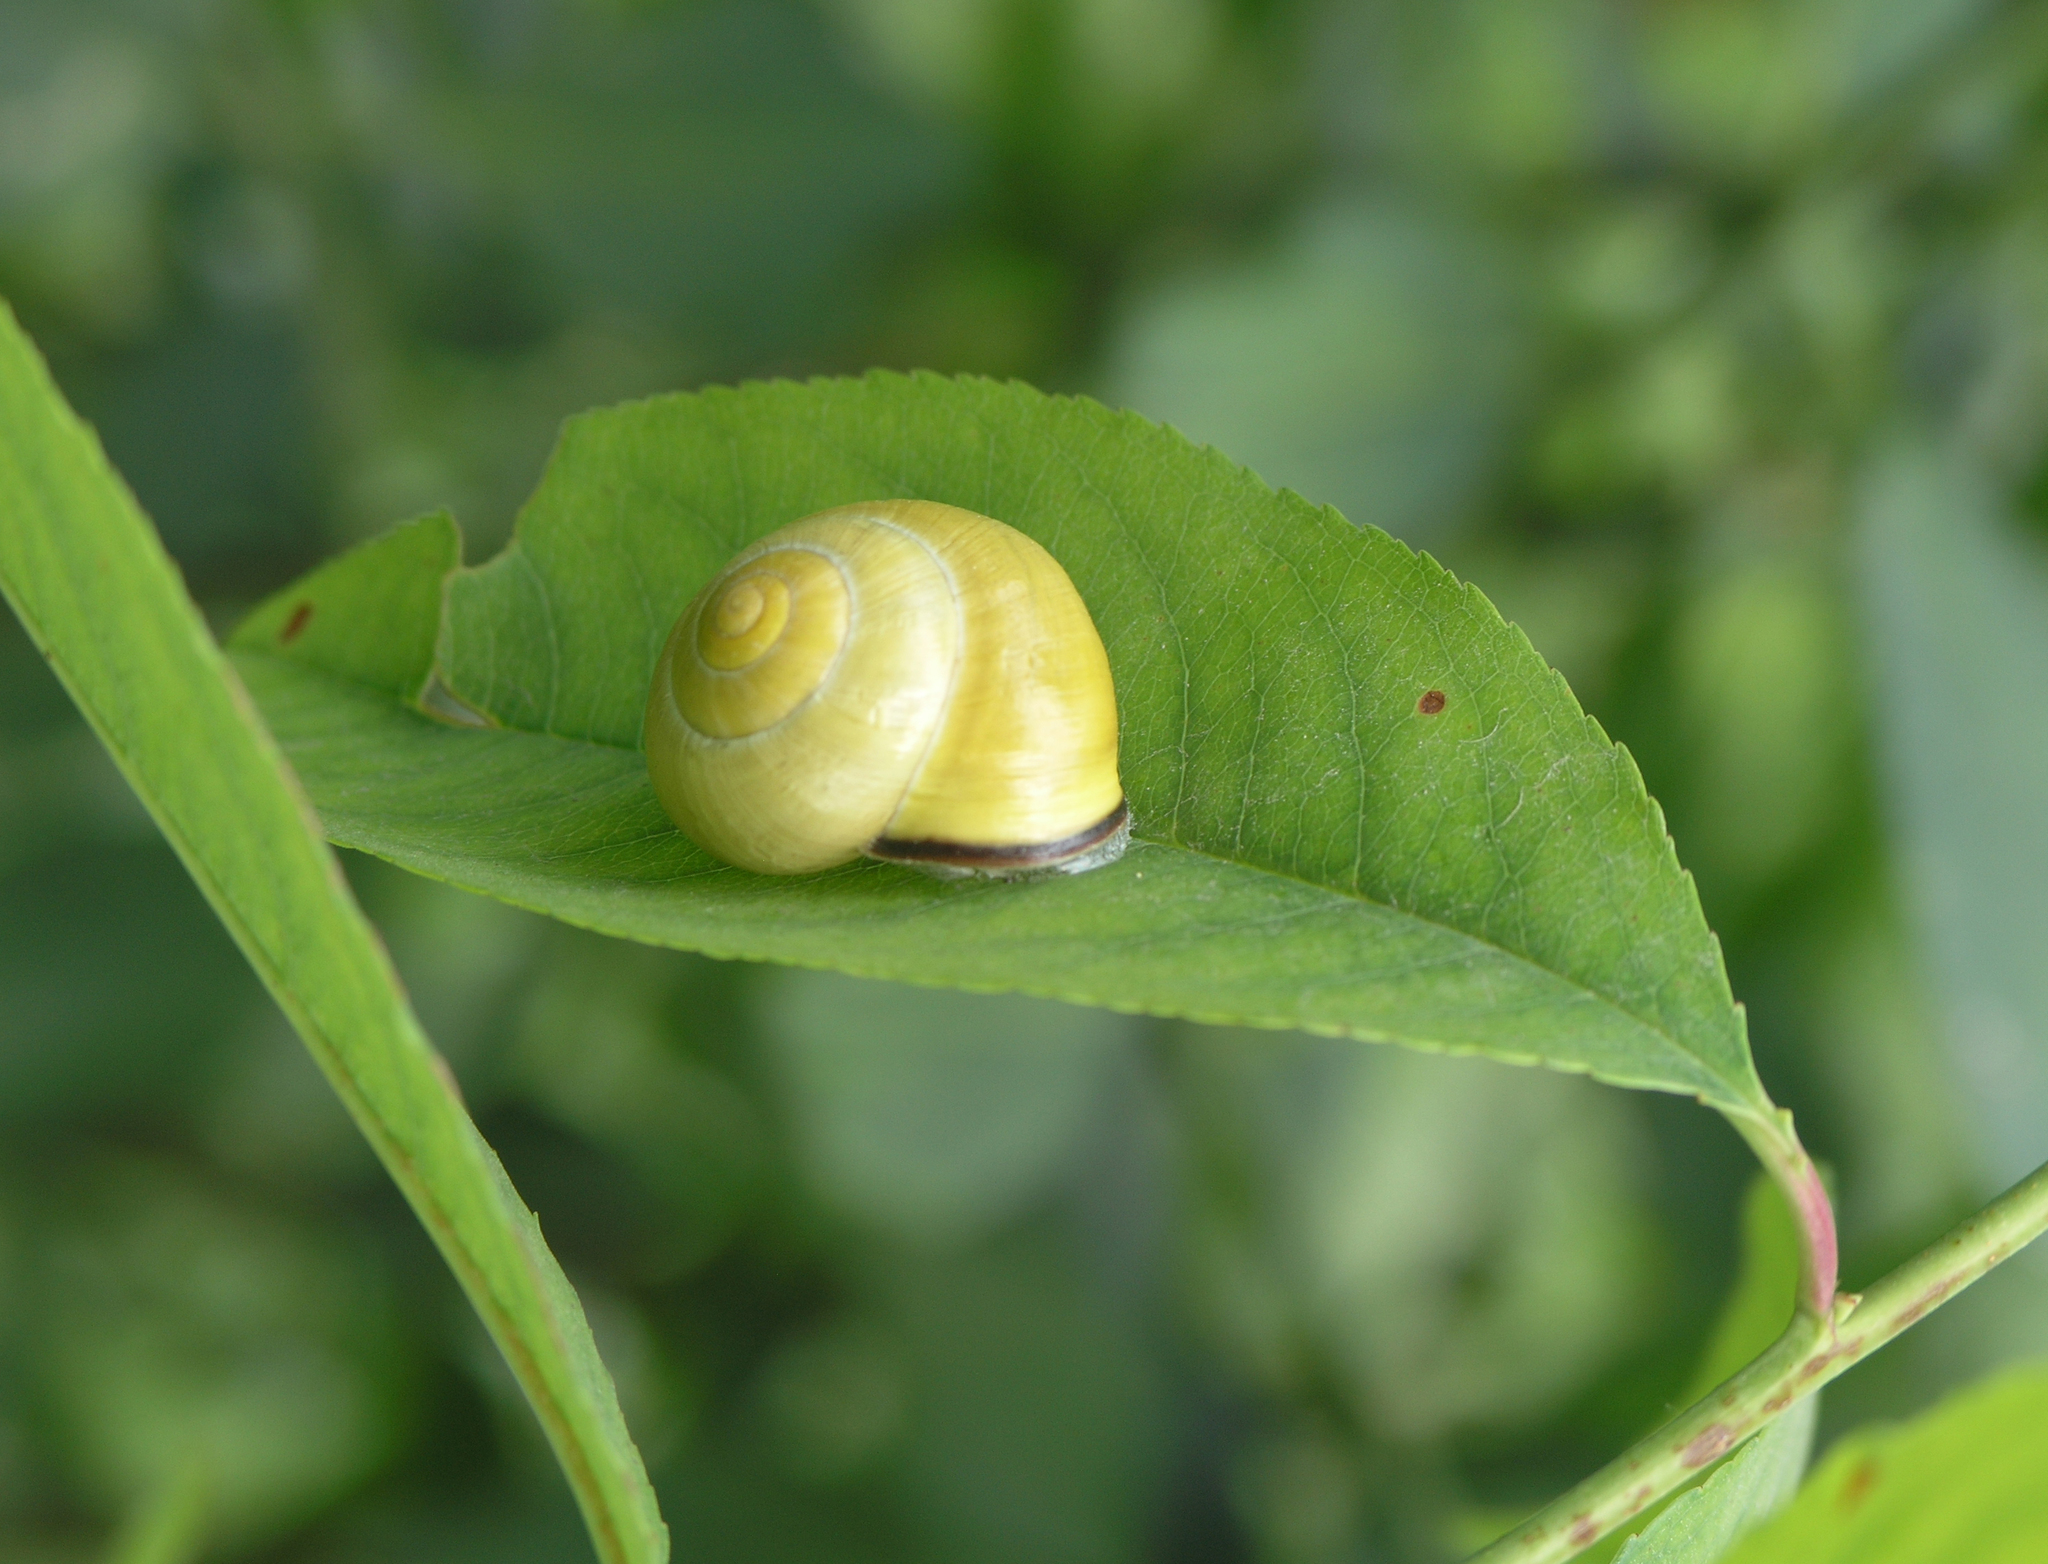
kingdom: Animalia
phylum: Mollusca
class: Gastropoda
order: Stylommatophora
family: Helicidae
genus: Cepaea
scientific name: Cepaea nemoralis
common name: Grovesnail
